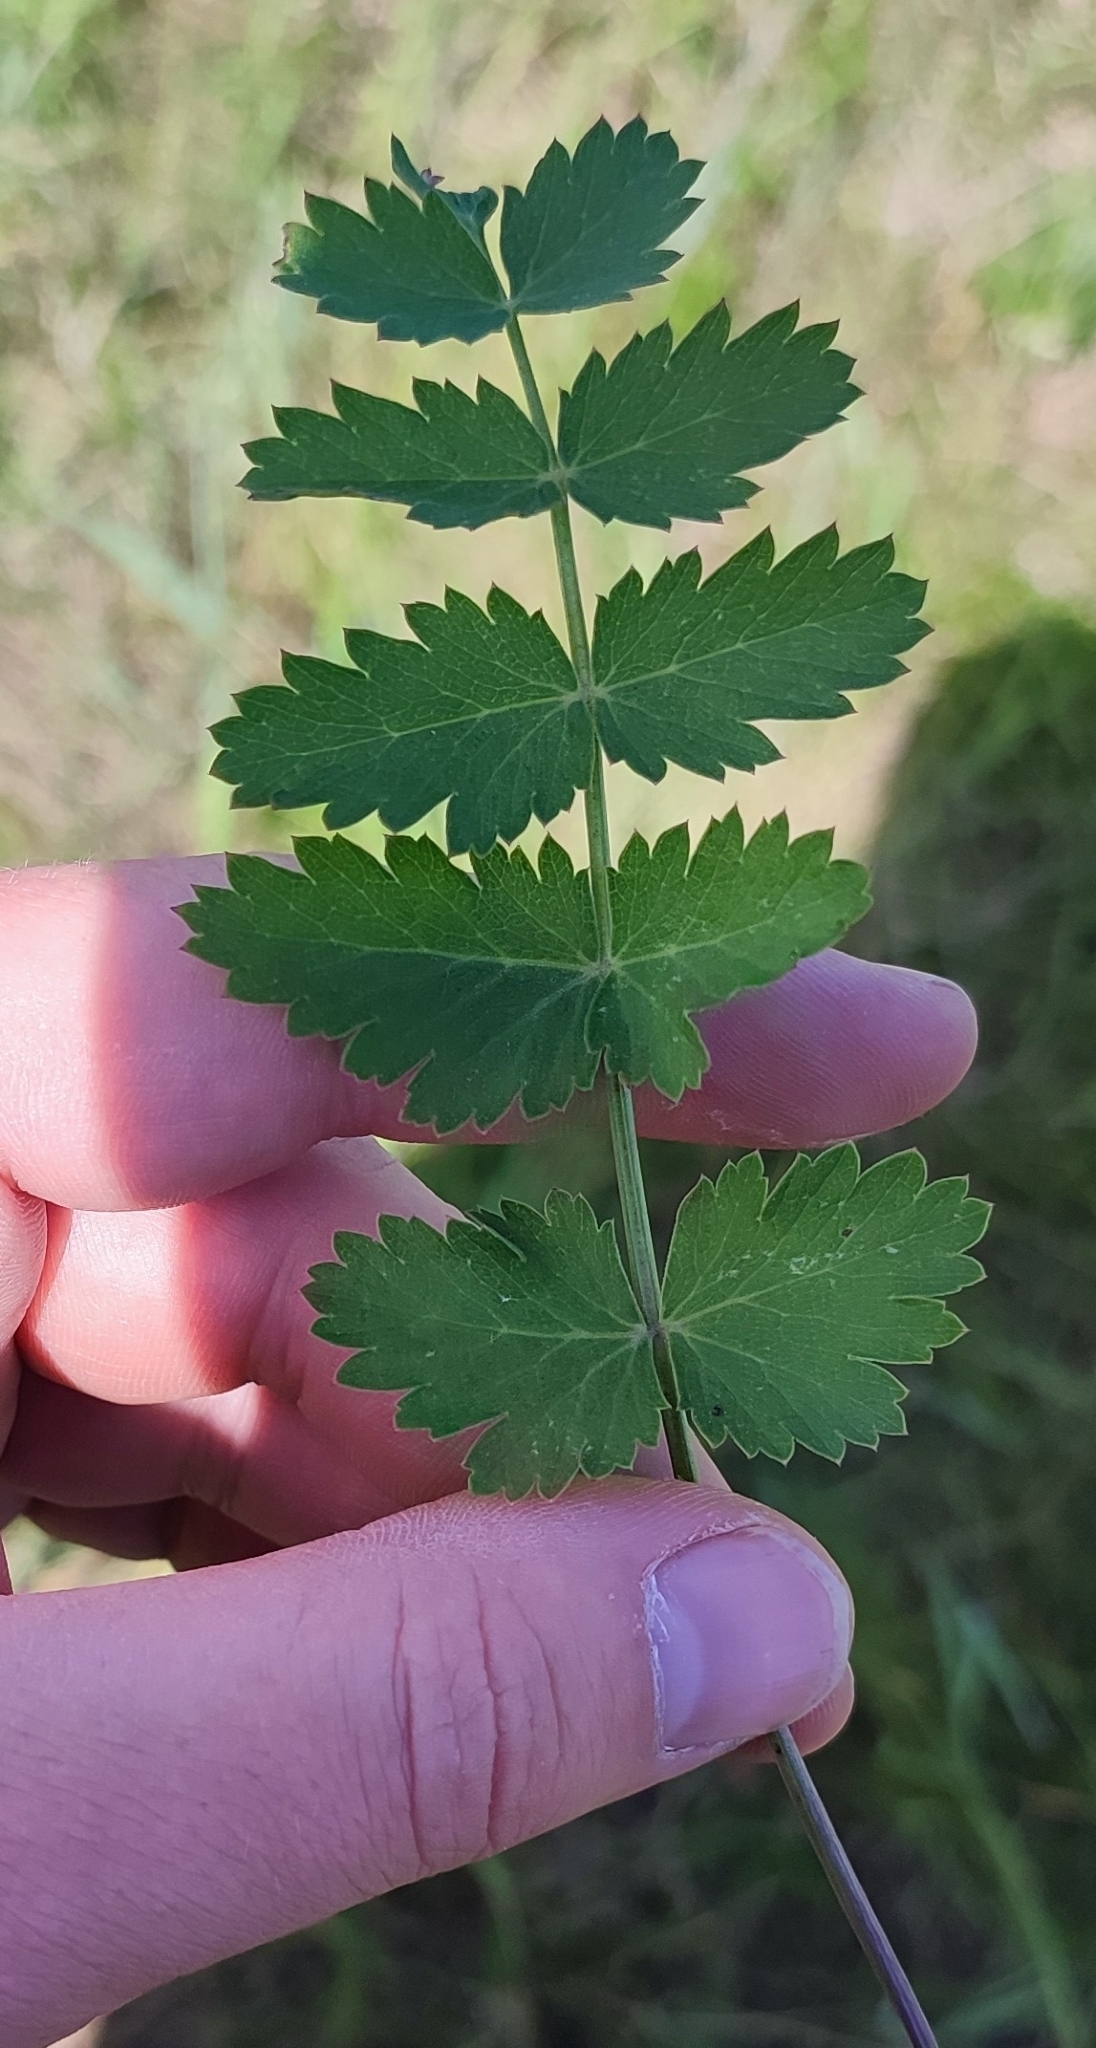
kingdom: Plantae
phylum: Tracheophyta
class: Magnoliopsida
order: Apiales
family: Apiaceae
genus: Pimpinella
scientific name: Pimpinella saxifraga
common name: Burnet-saxifrage
